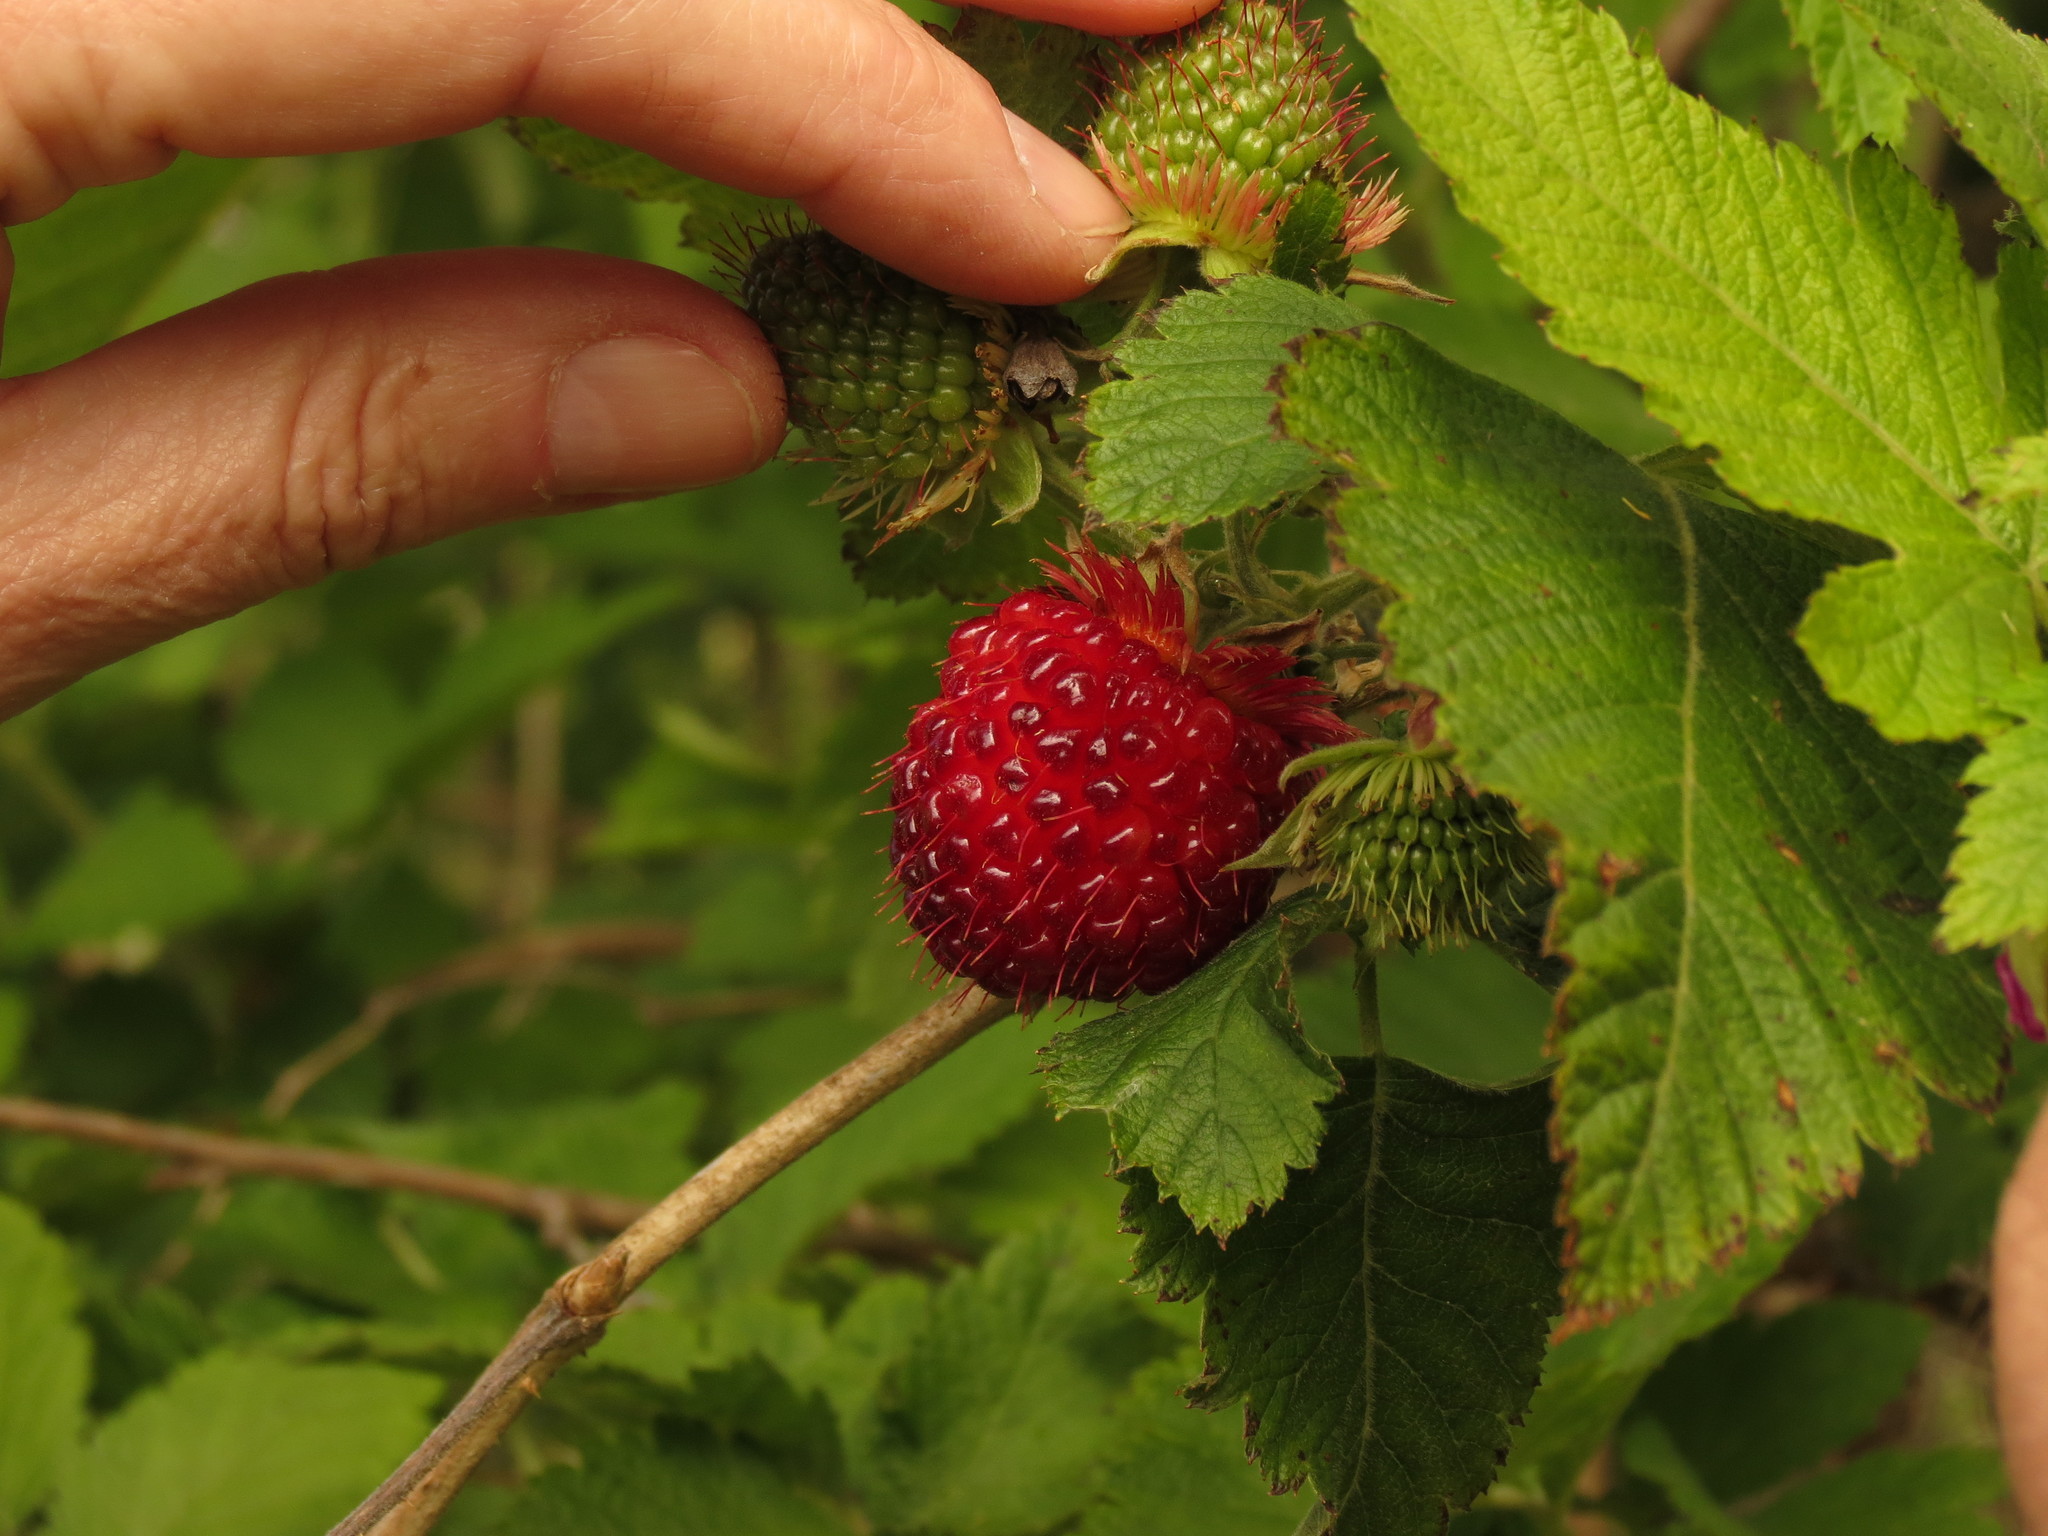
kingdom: Plantae
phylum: Tracheophyta
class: Magnoliopsida
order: Rosales
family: Rosaceae
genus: Rubus
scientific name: Rubus hawaiensis
